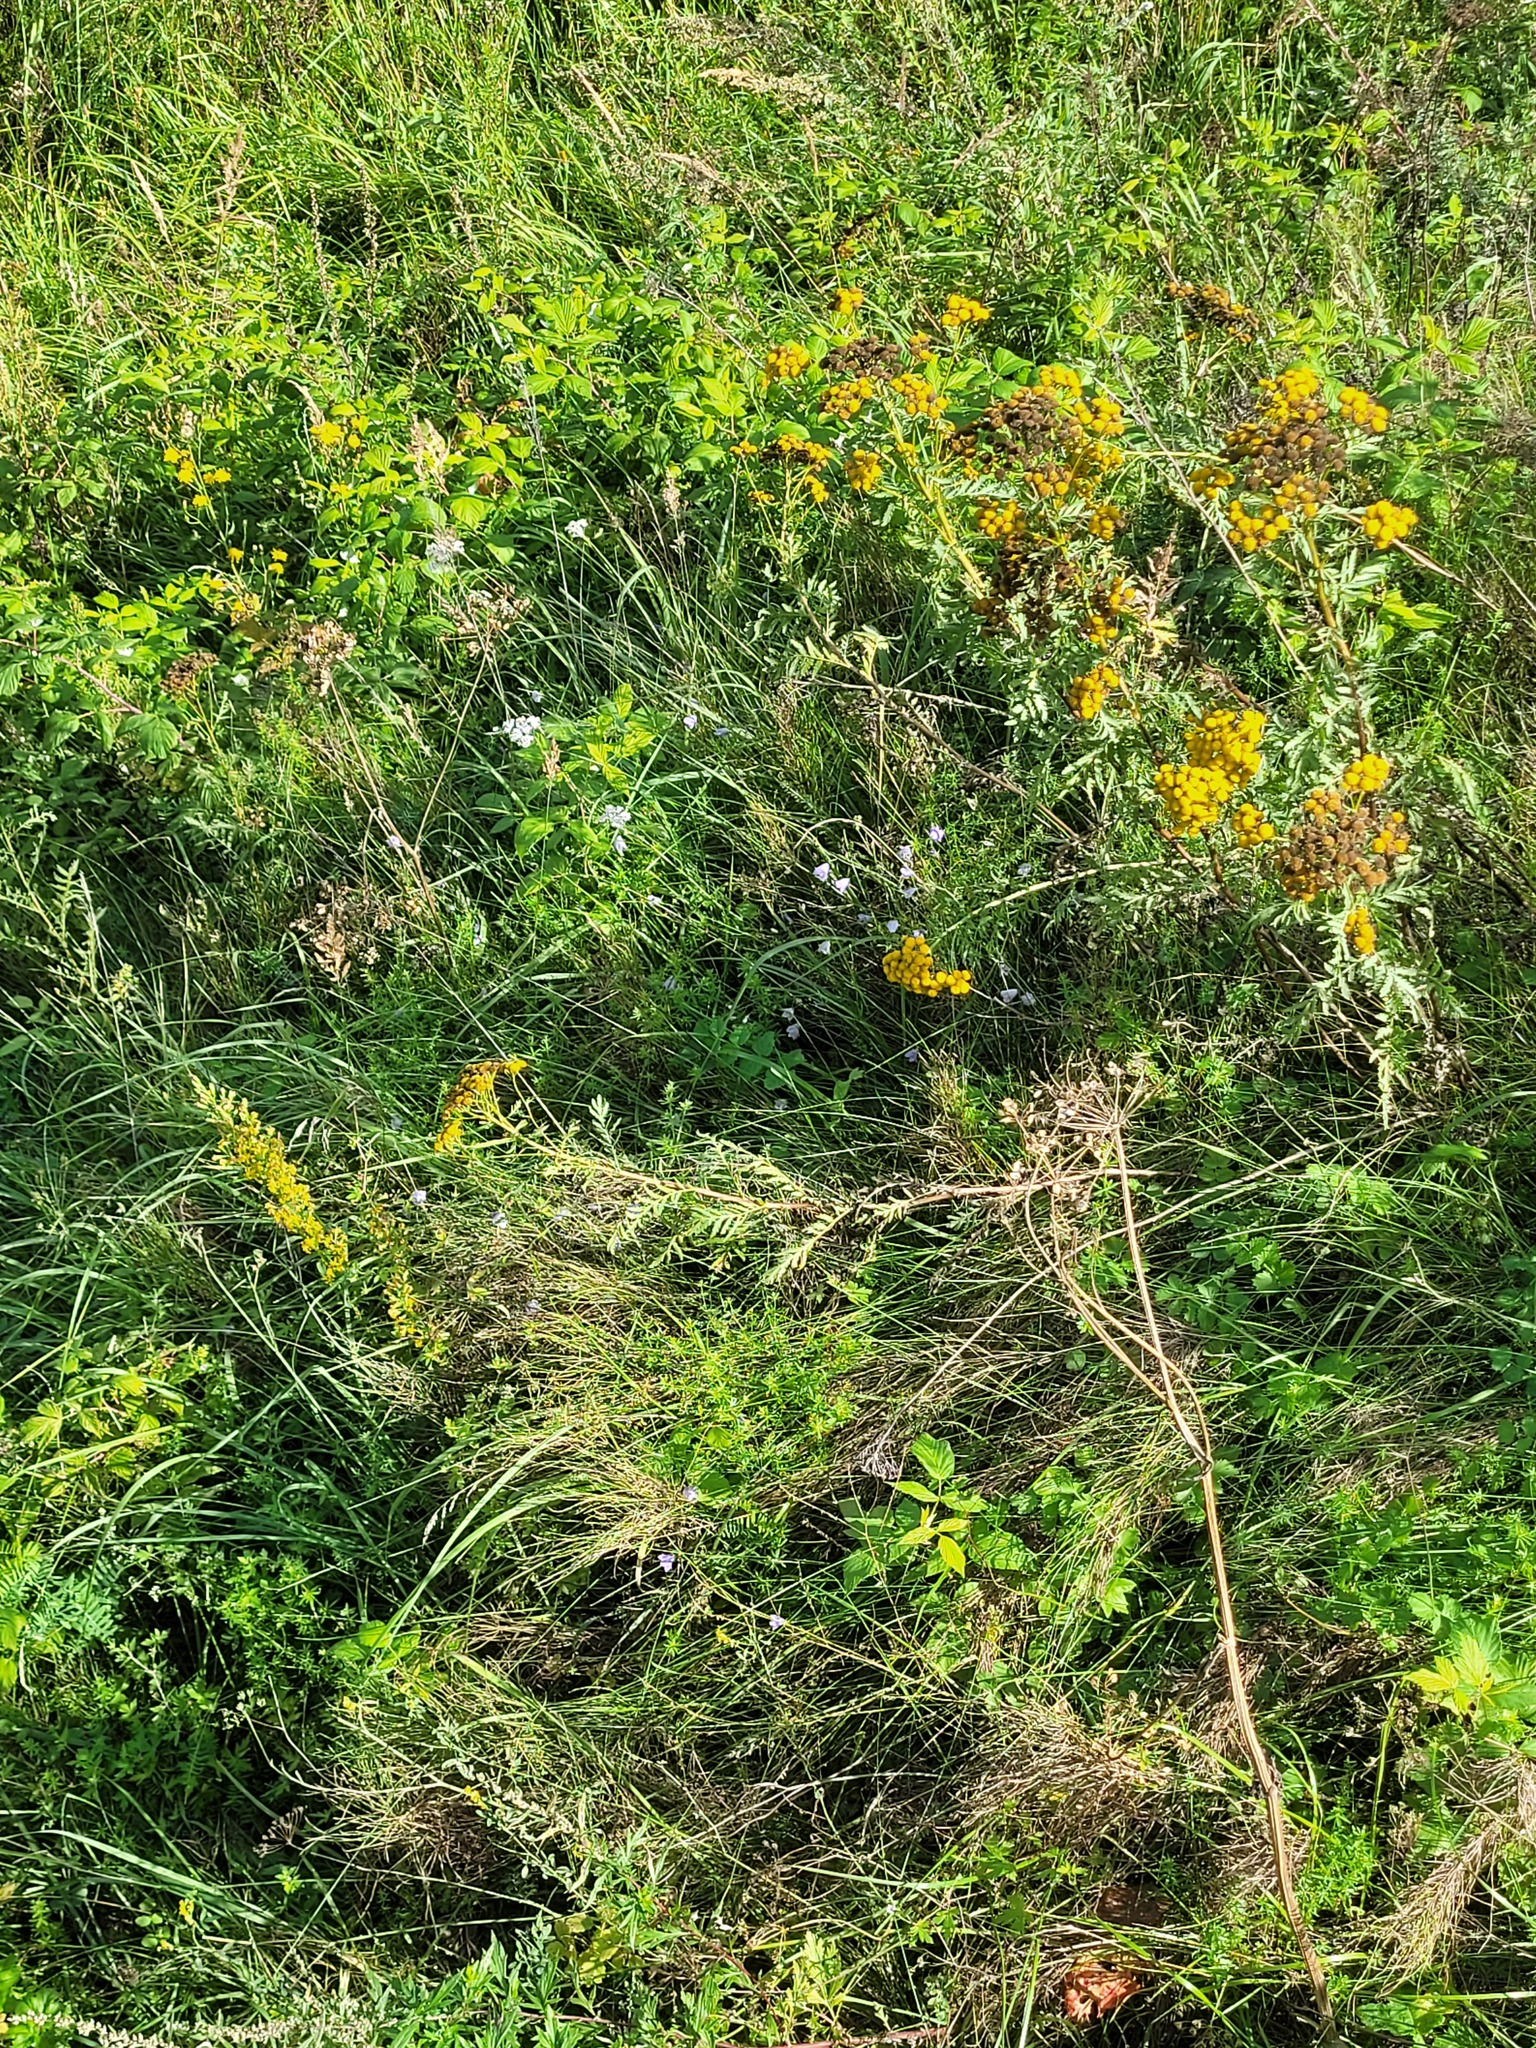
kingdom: Plantae
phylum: Tracheophyta
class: Magnoliopsida
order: Asterales
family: Asteraceae
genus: Tanacetum
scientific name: Tanacetum vulgare
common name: Common tansy
